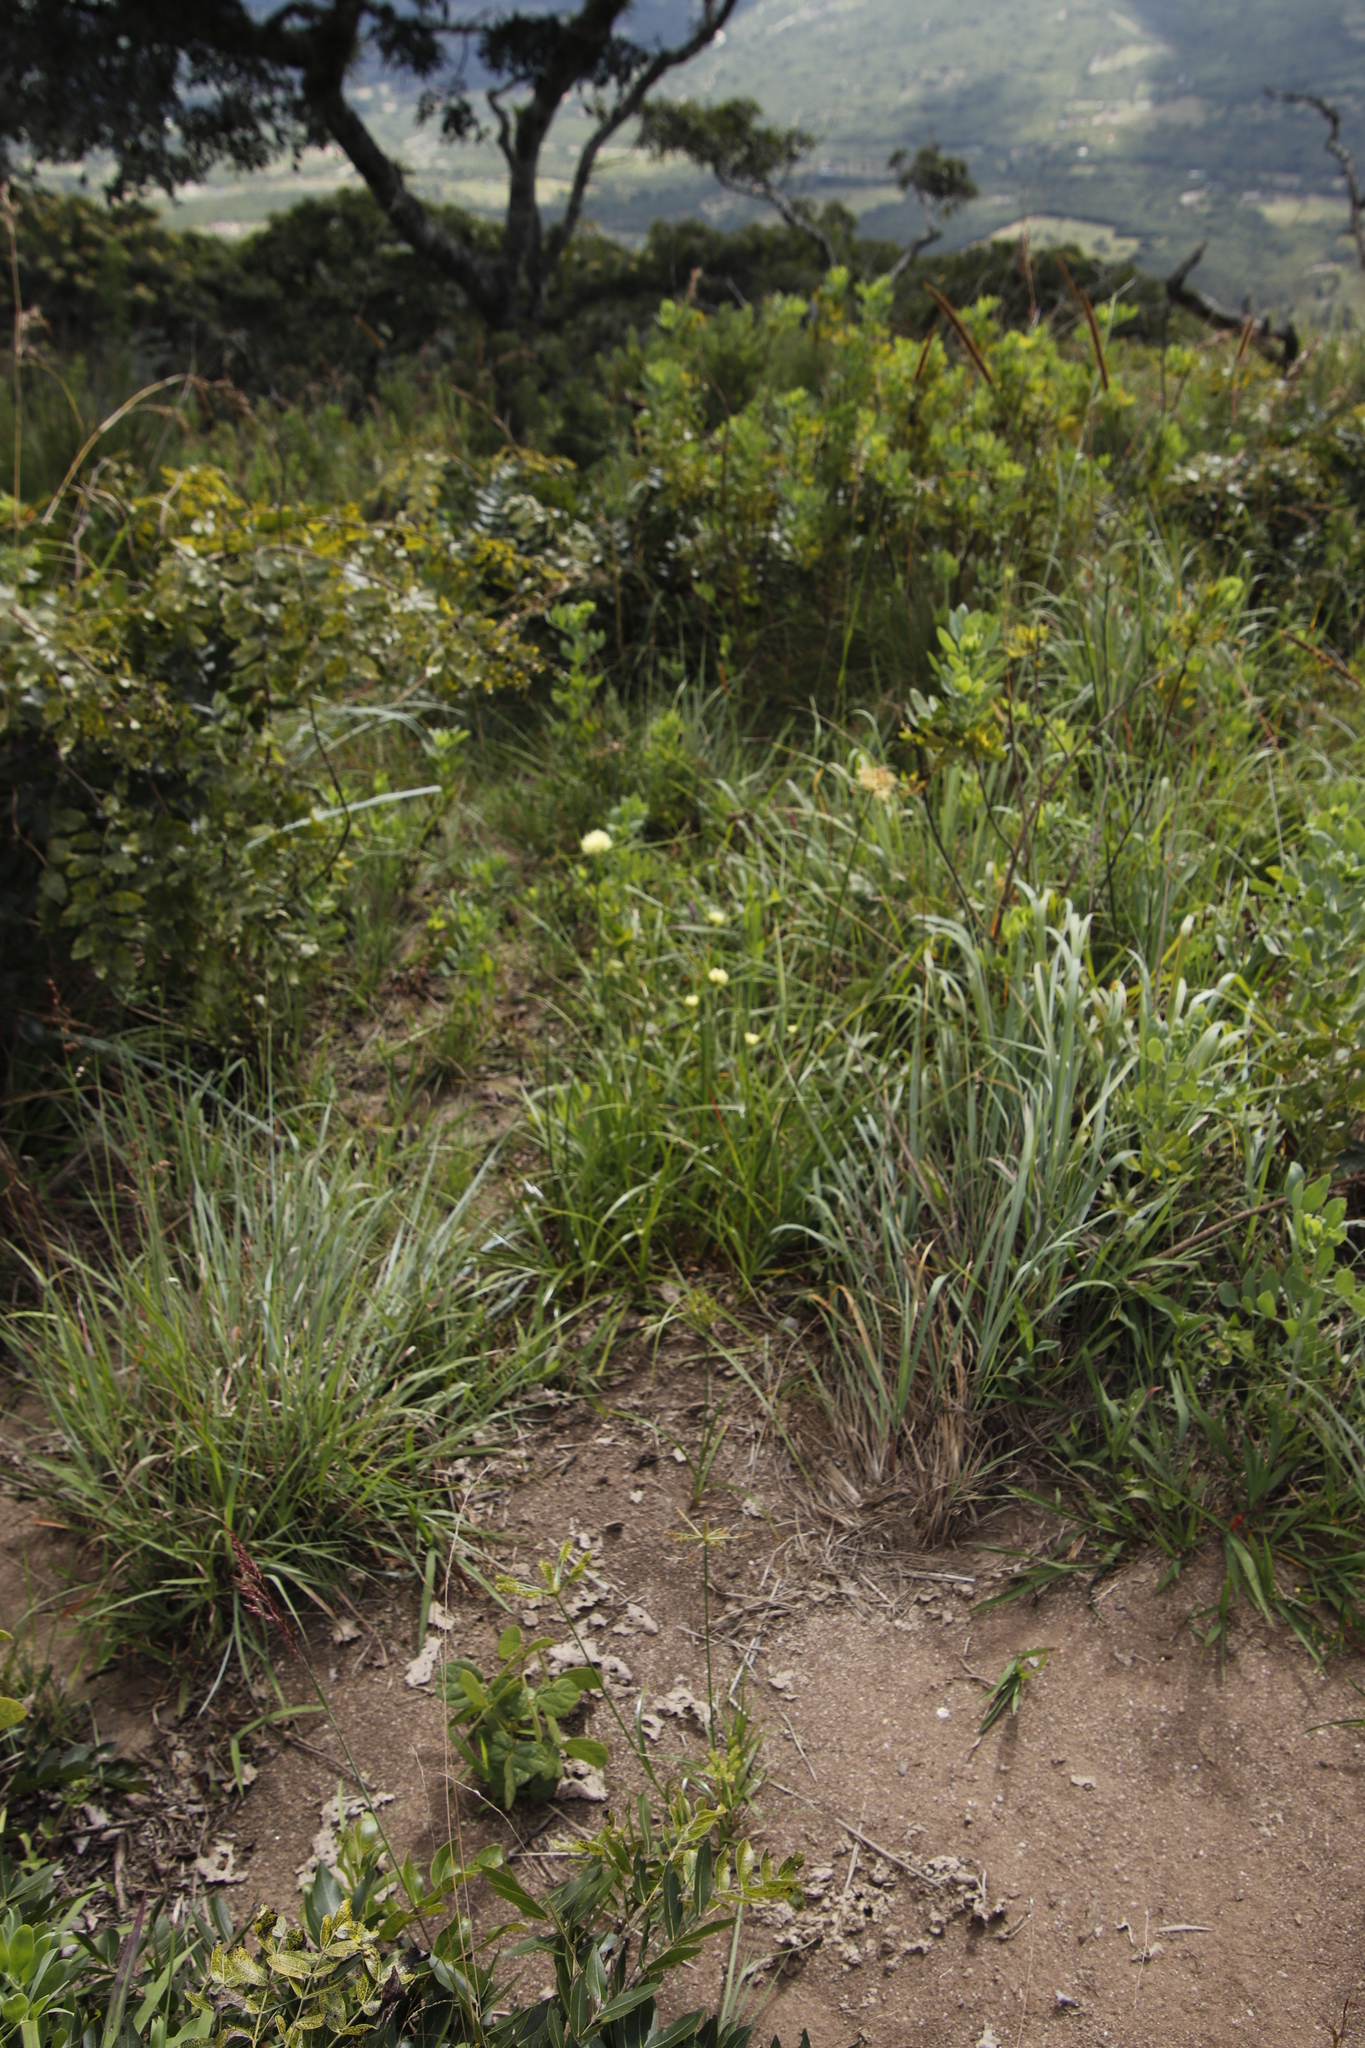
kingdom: Plantae
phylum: Tracheophyta
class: Liliopsida
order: Poales
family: Cyperaceae
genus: Cyperus
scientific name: Cyperus hemisphaericus
